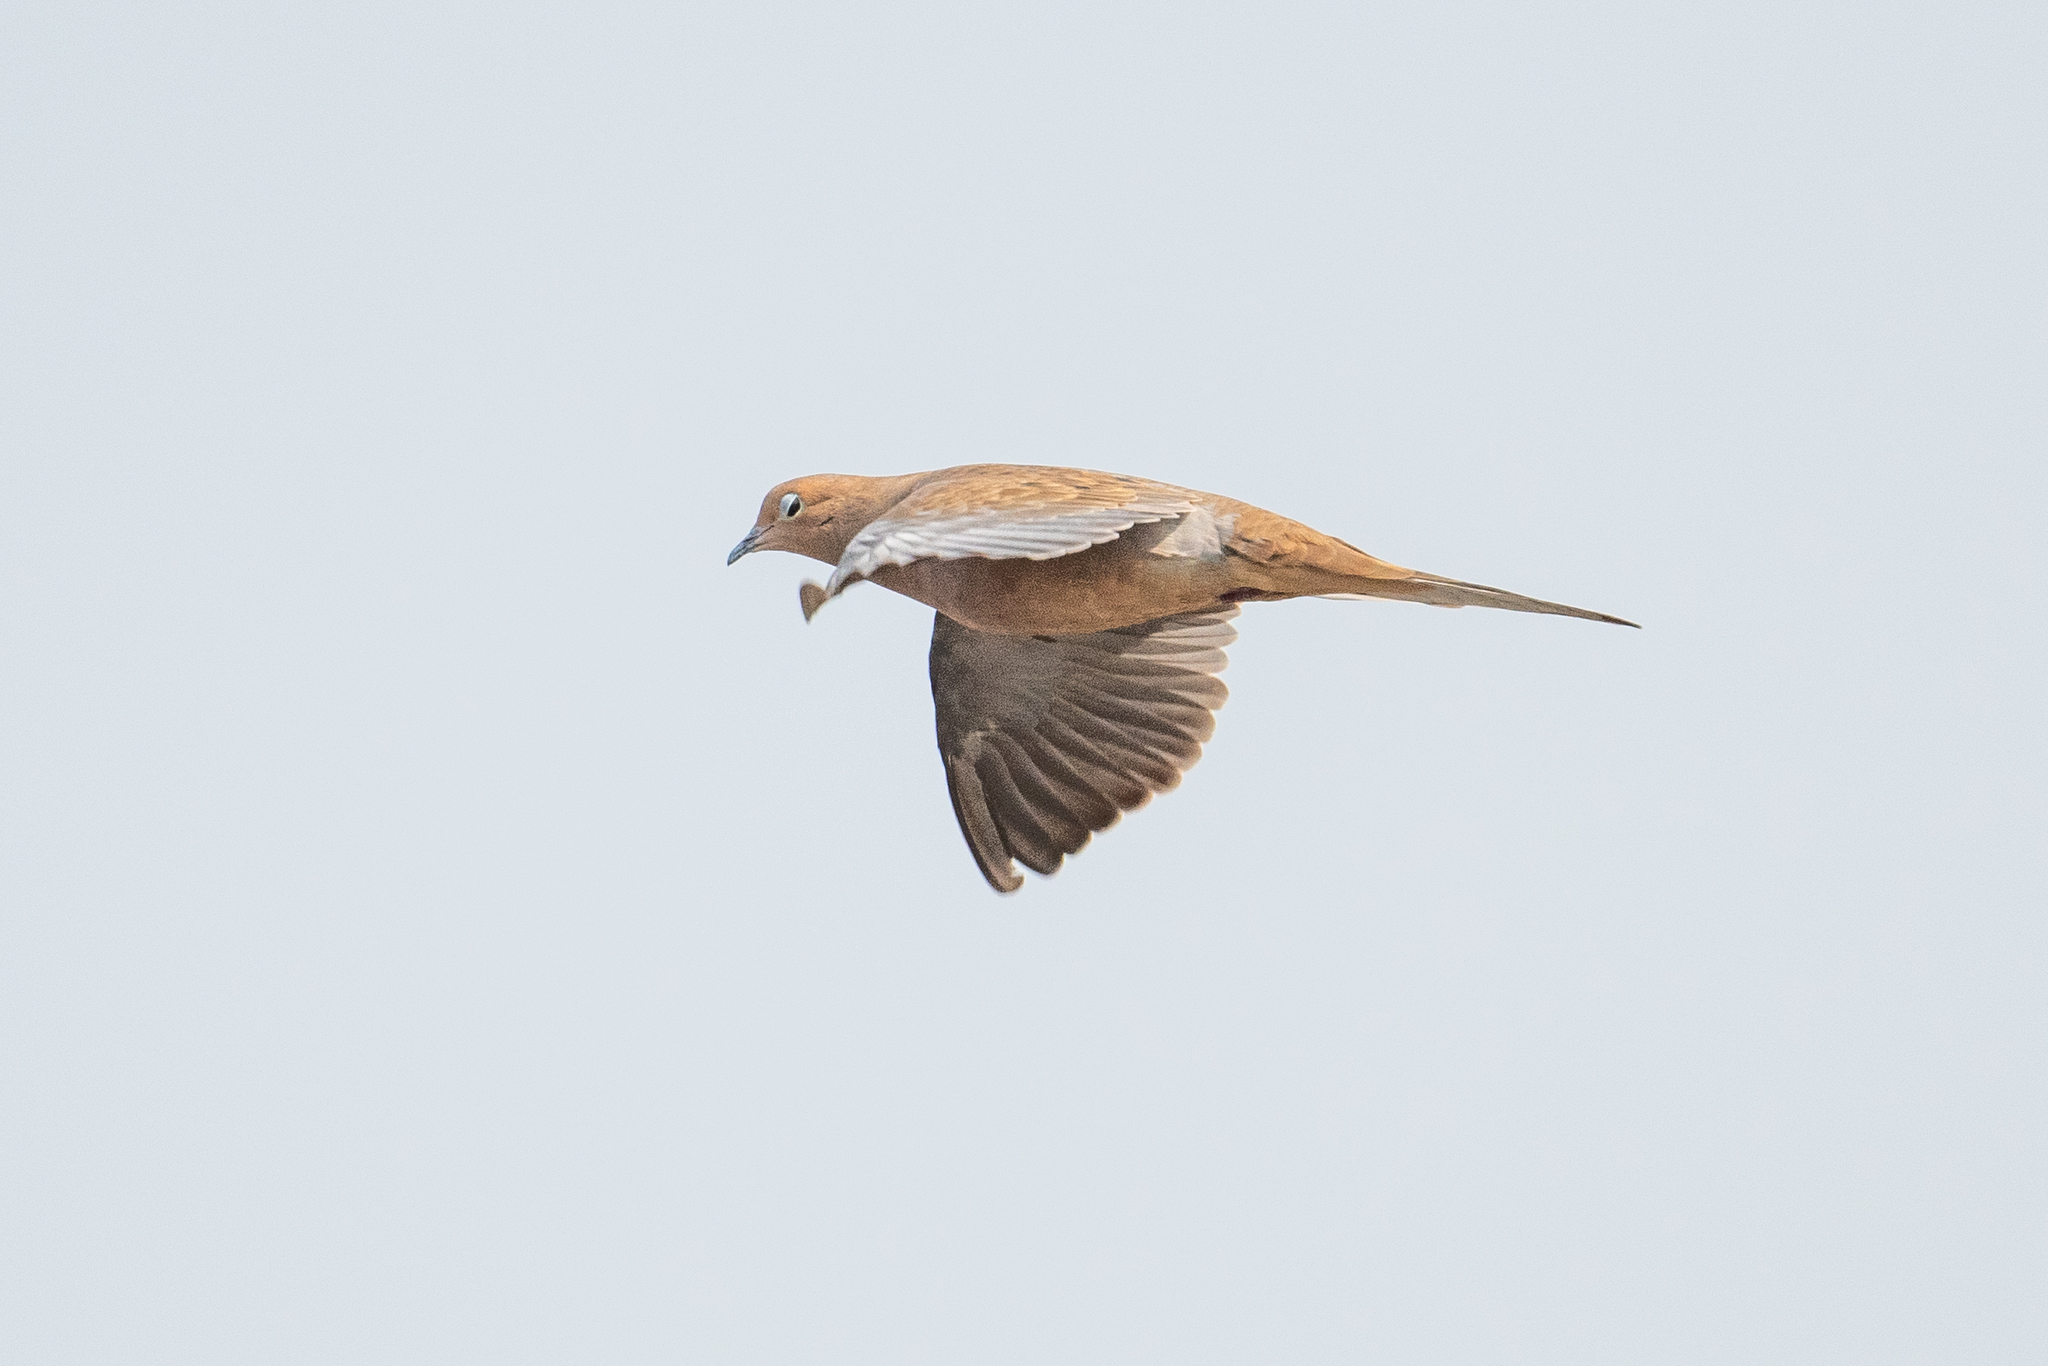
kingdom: Animalia
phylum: Chordata
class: Aves
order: Columbiformes
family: Columbidae
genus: Zenaida
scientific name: Zenaida macroura
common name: Mourning dove
